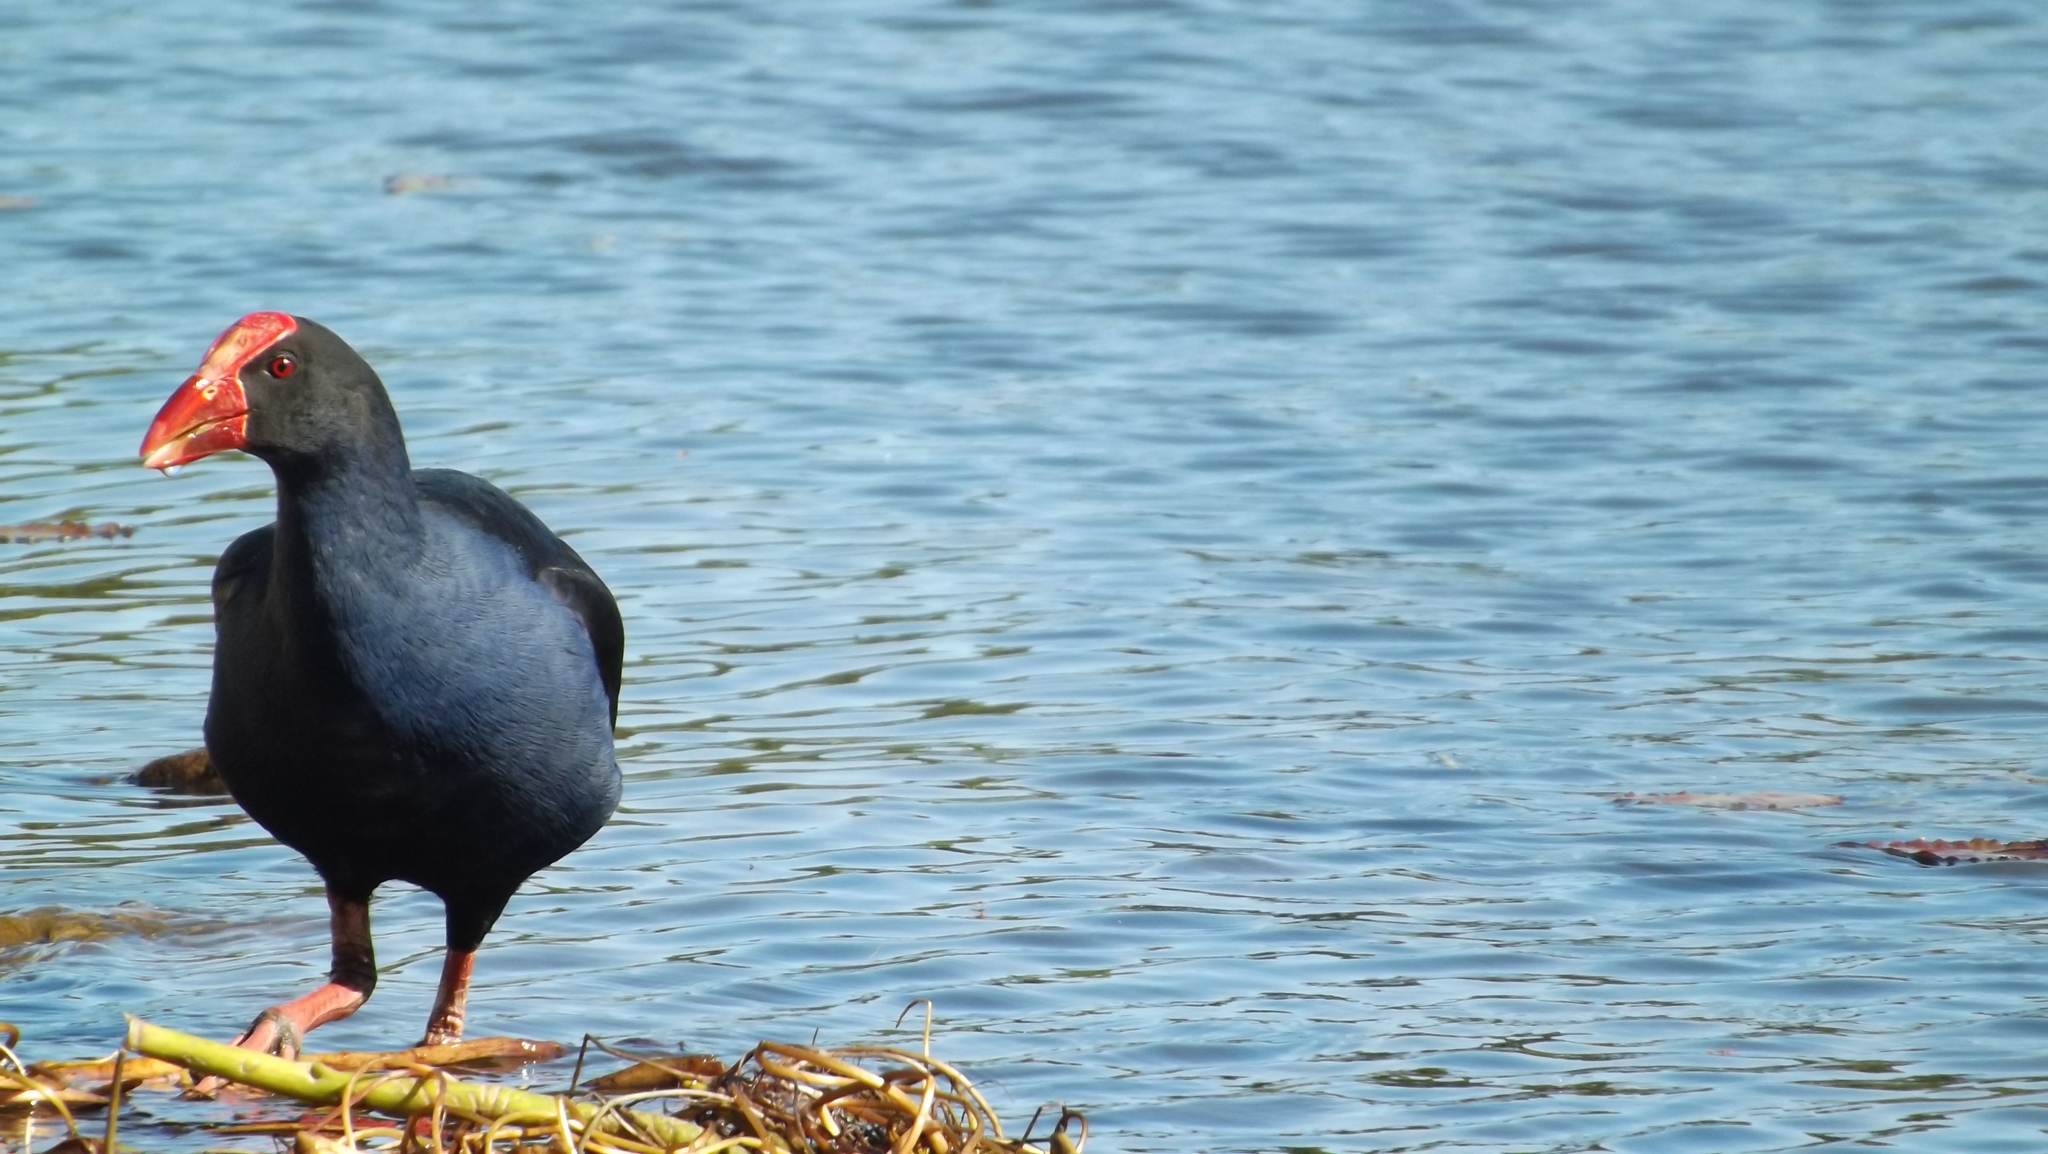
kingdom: Animalia
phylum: Chordata
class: Aves
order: Gruiformes
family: Rallidae
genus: Porphyrio
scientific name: Porphyrio melanotus
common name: Australasian swamphen
